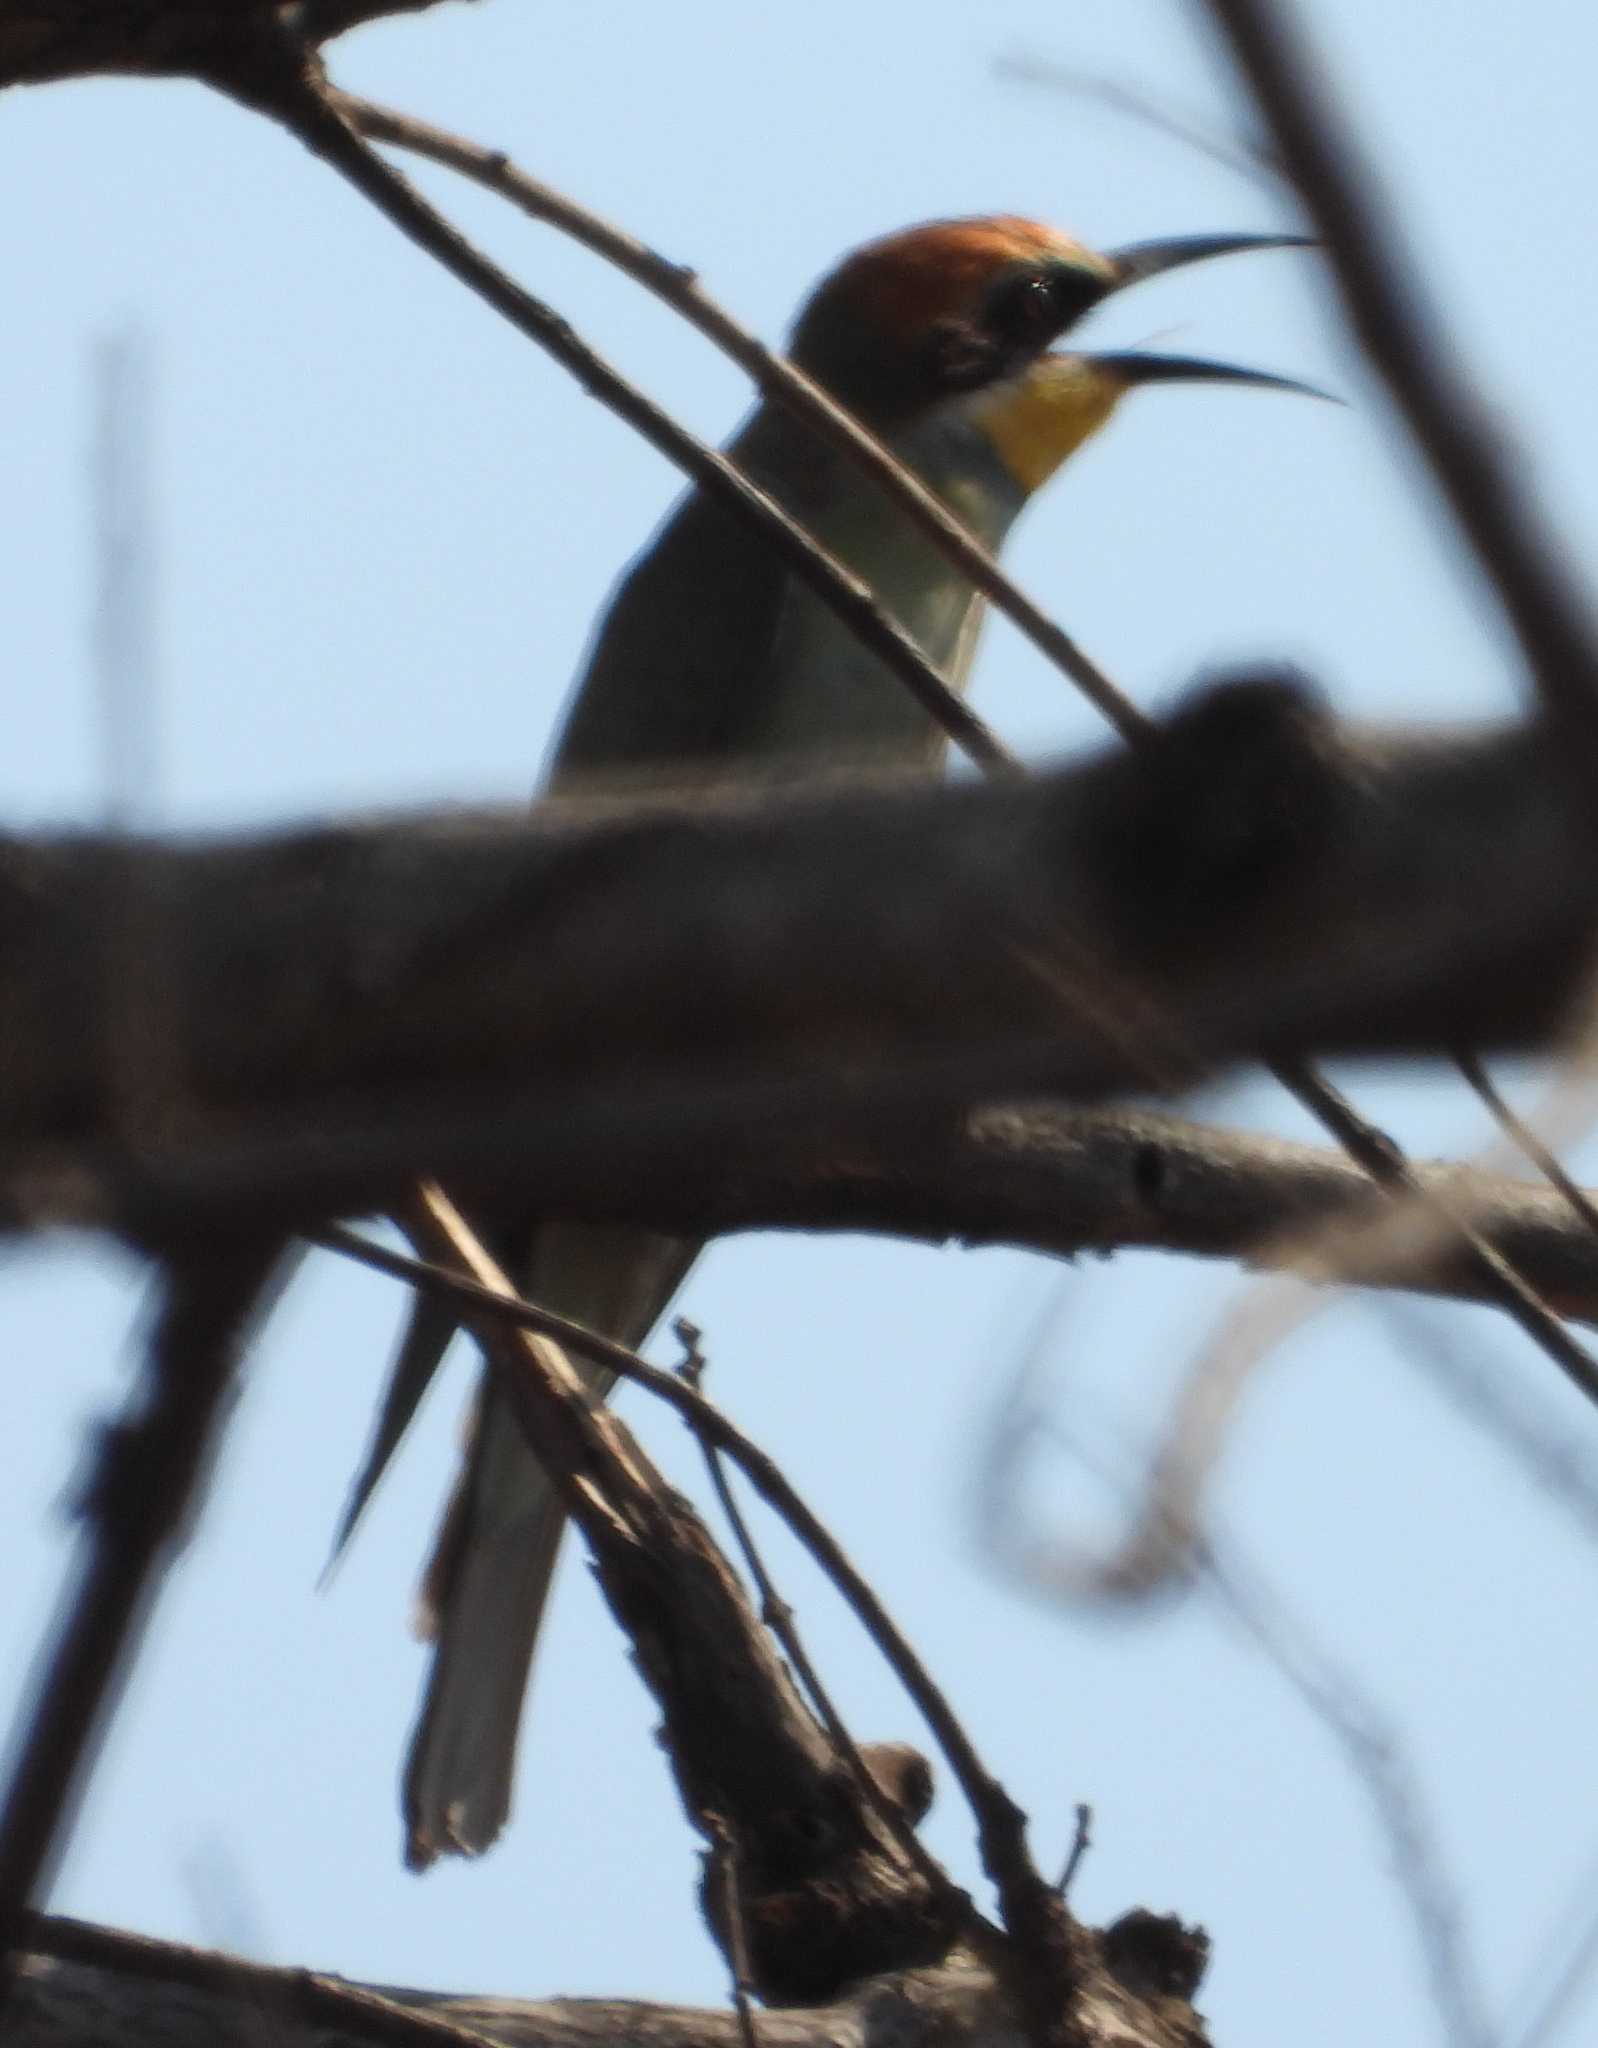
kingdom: Animalia
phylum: Chordata
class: Aves
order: Coraciiformes
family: Meropidae
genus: Merops
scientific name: Merops apiaster
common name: European bee-eater
